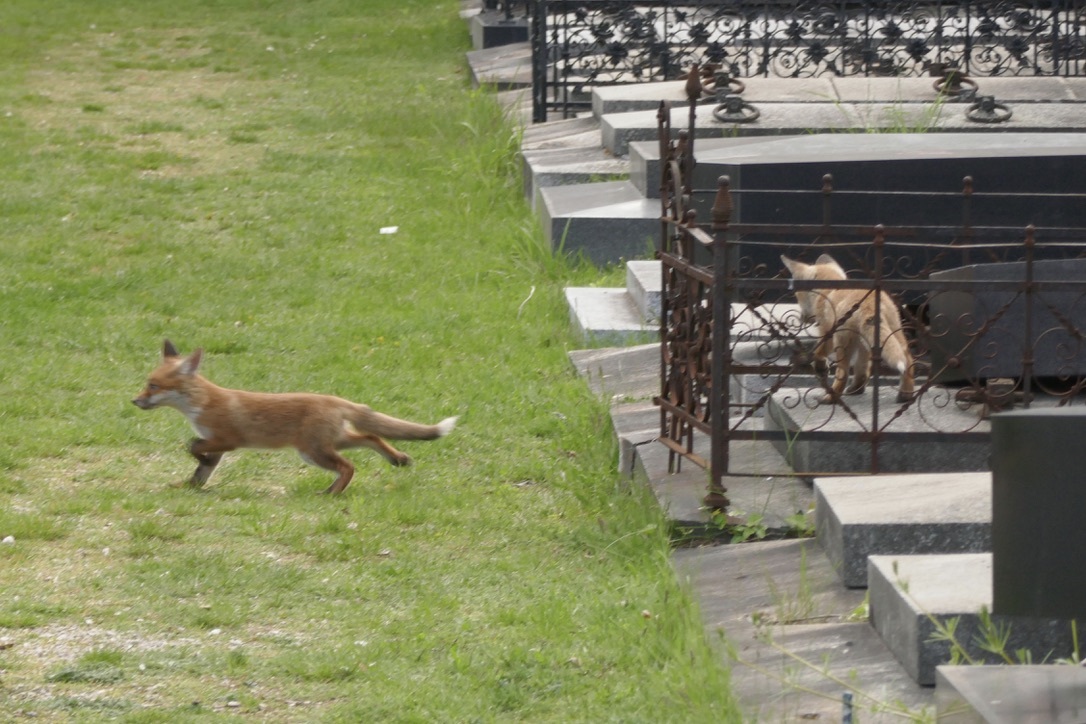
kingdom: Animalia
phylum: Chordata
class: Mammalia
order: Carnivora
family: Canidae
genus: Vulpes
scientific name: Vulpes vulpes
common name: Red fox
